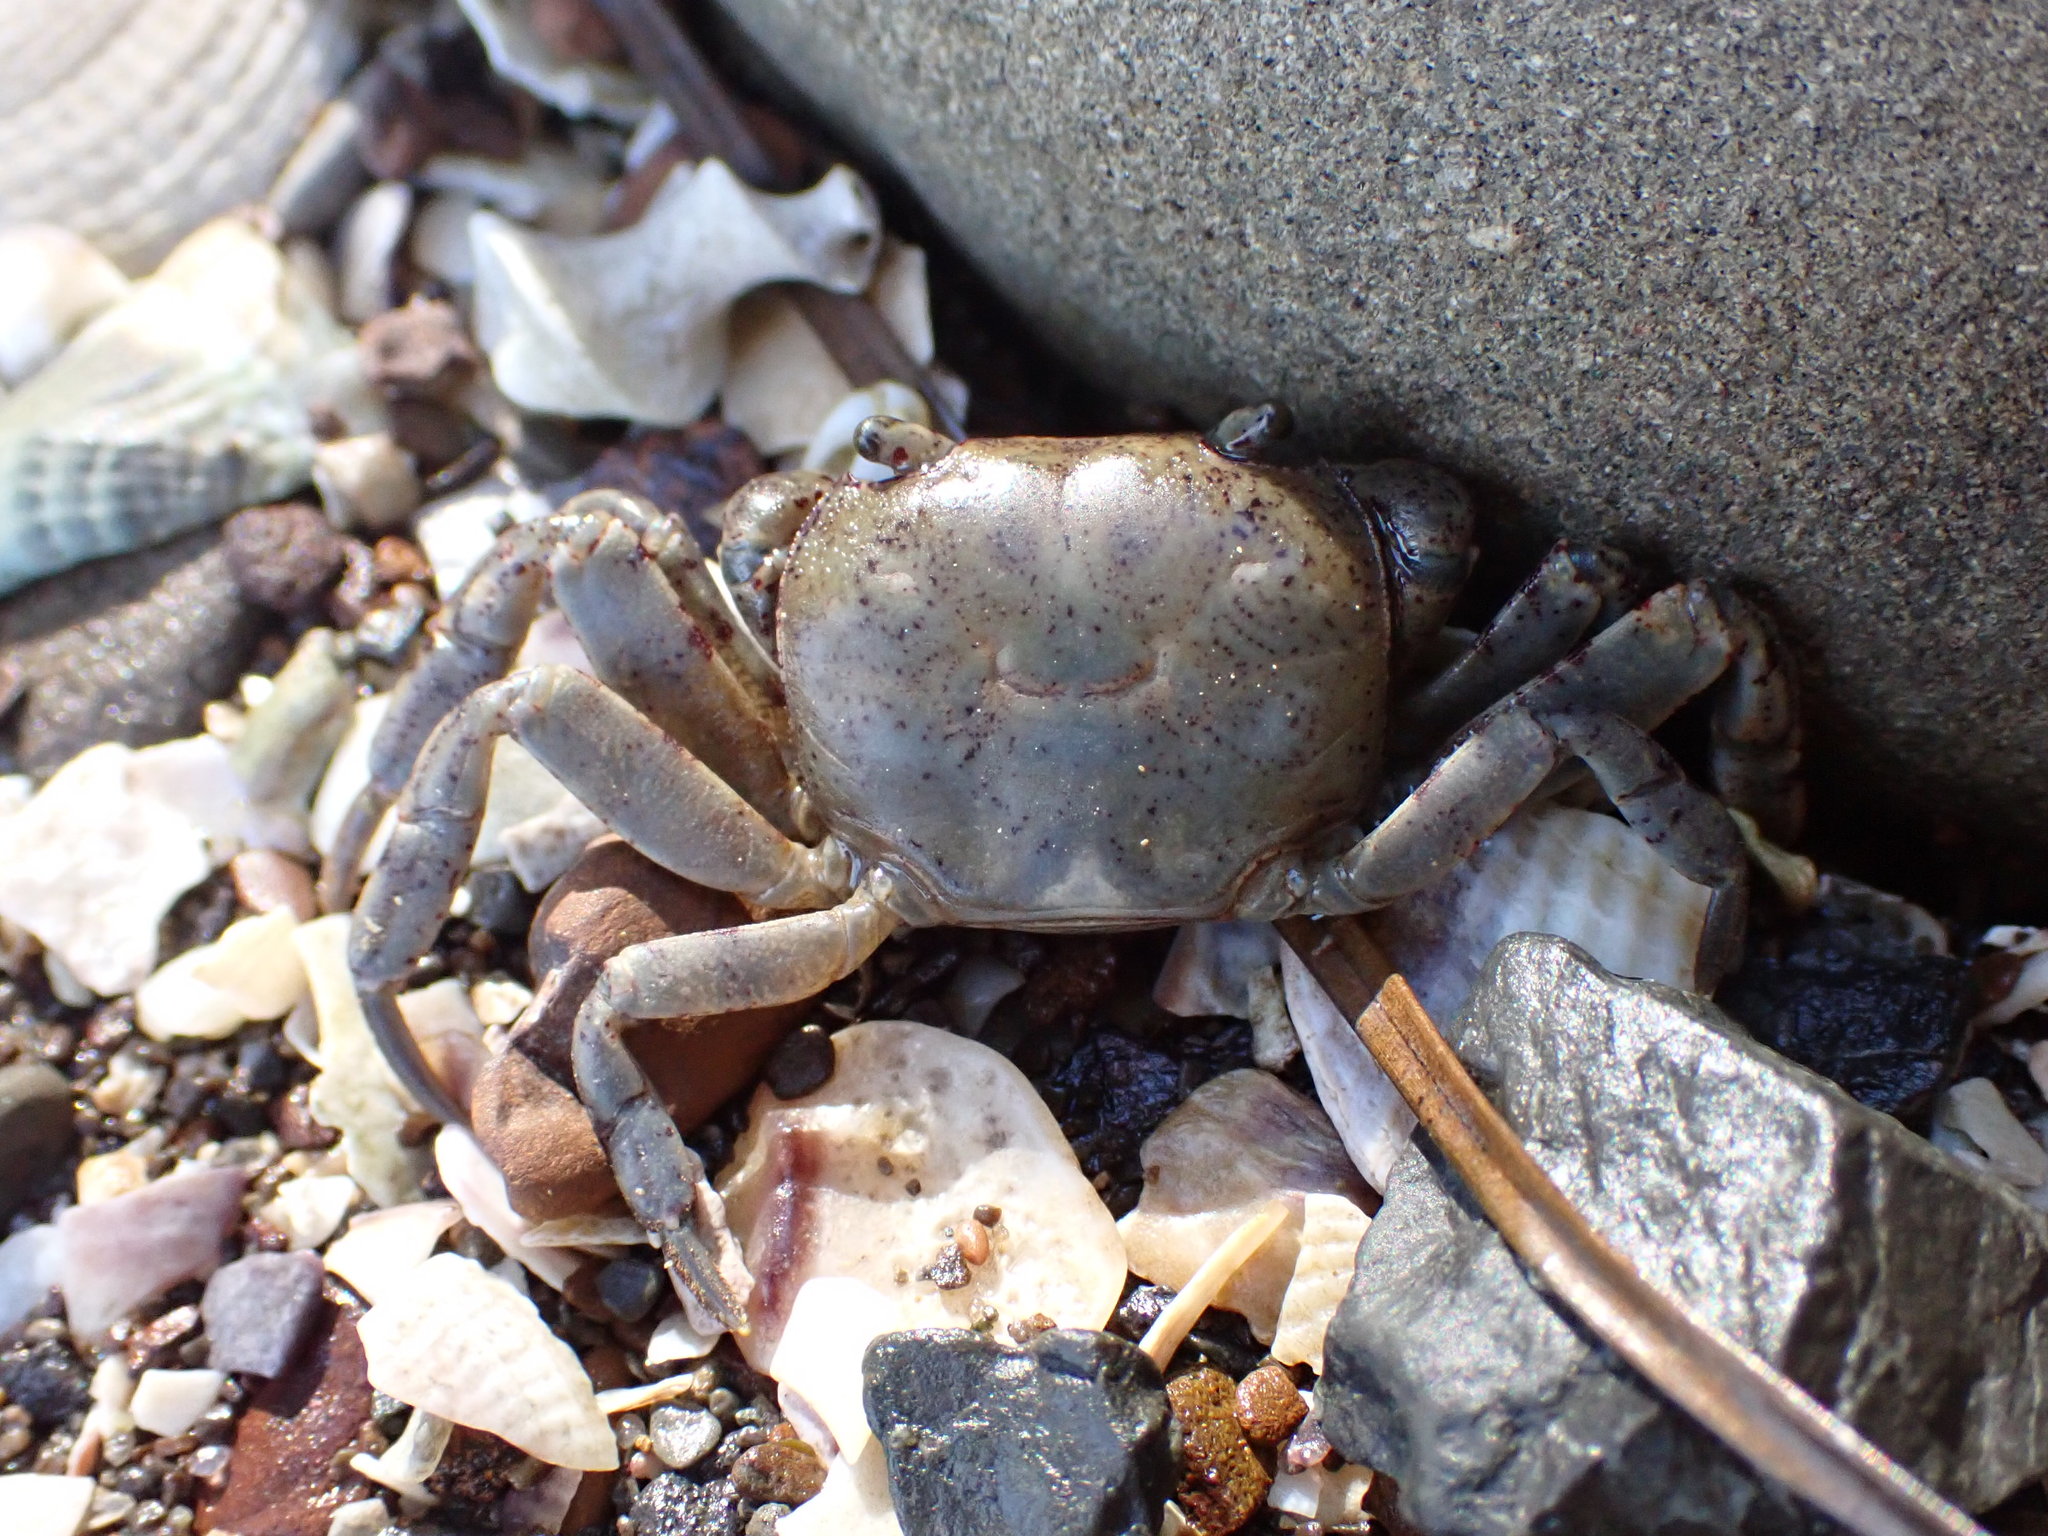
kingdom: Animalia
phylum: Arthropoda
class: Malacostraca
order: Decapoda
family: Varunidae
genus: Cyclograpsus
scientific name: Cyclograpsus lavauxi
